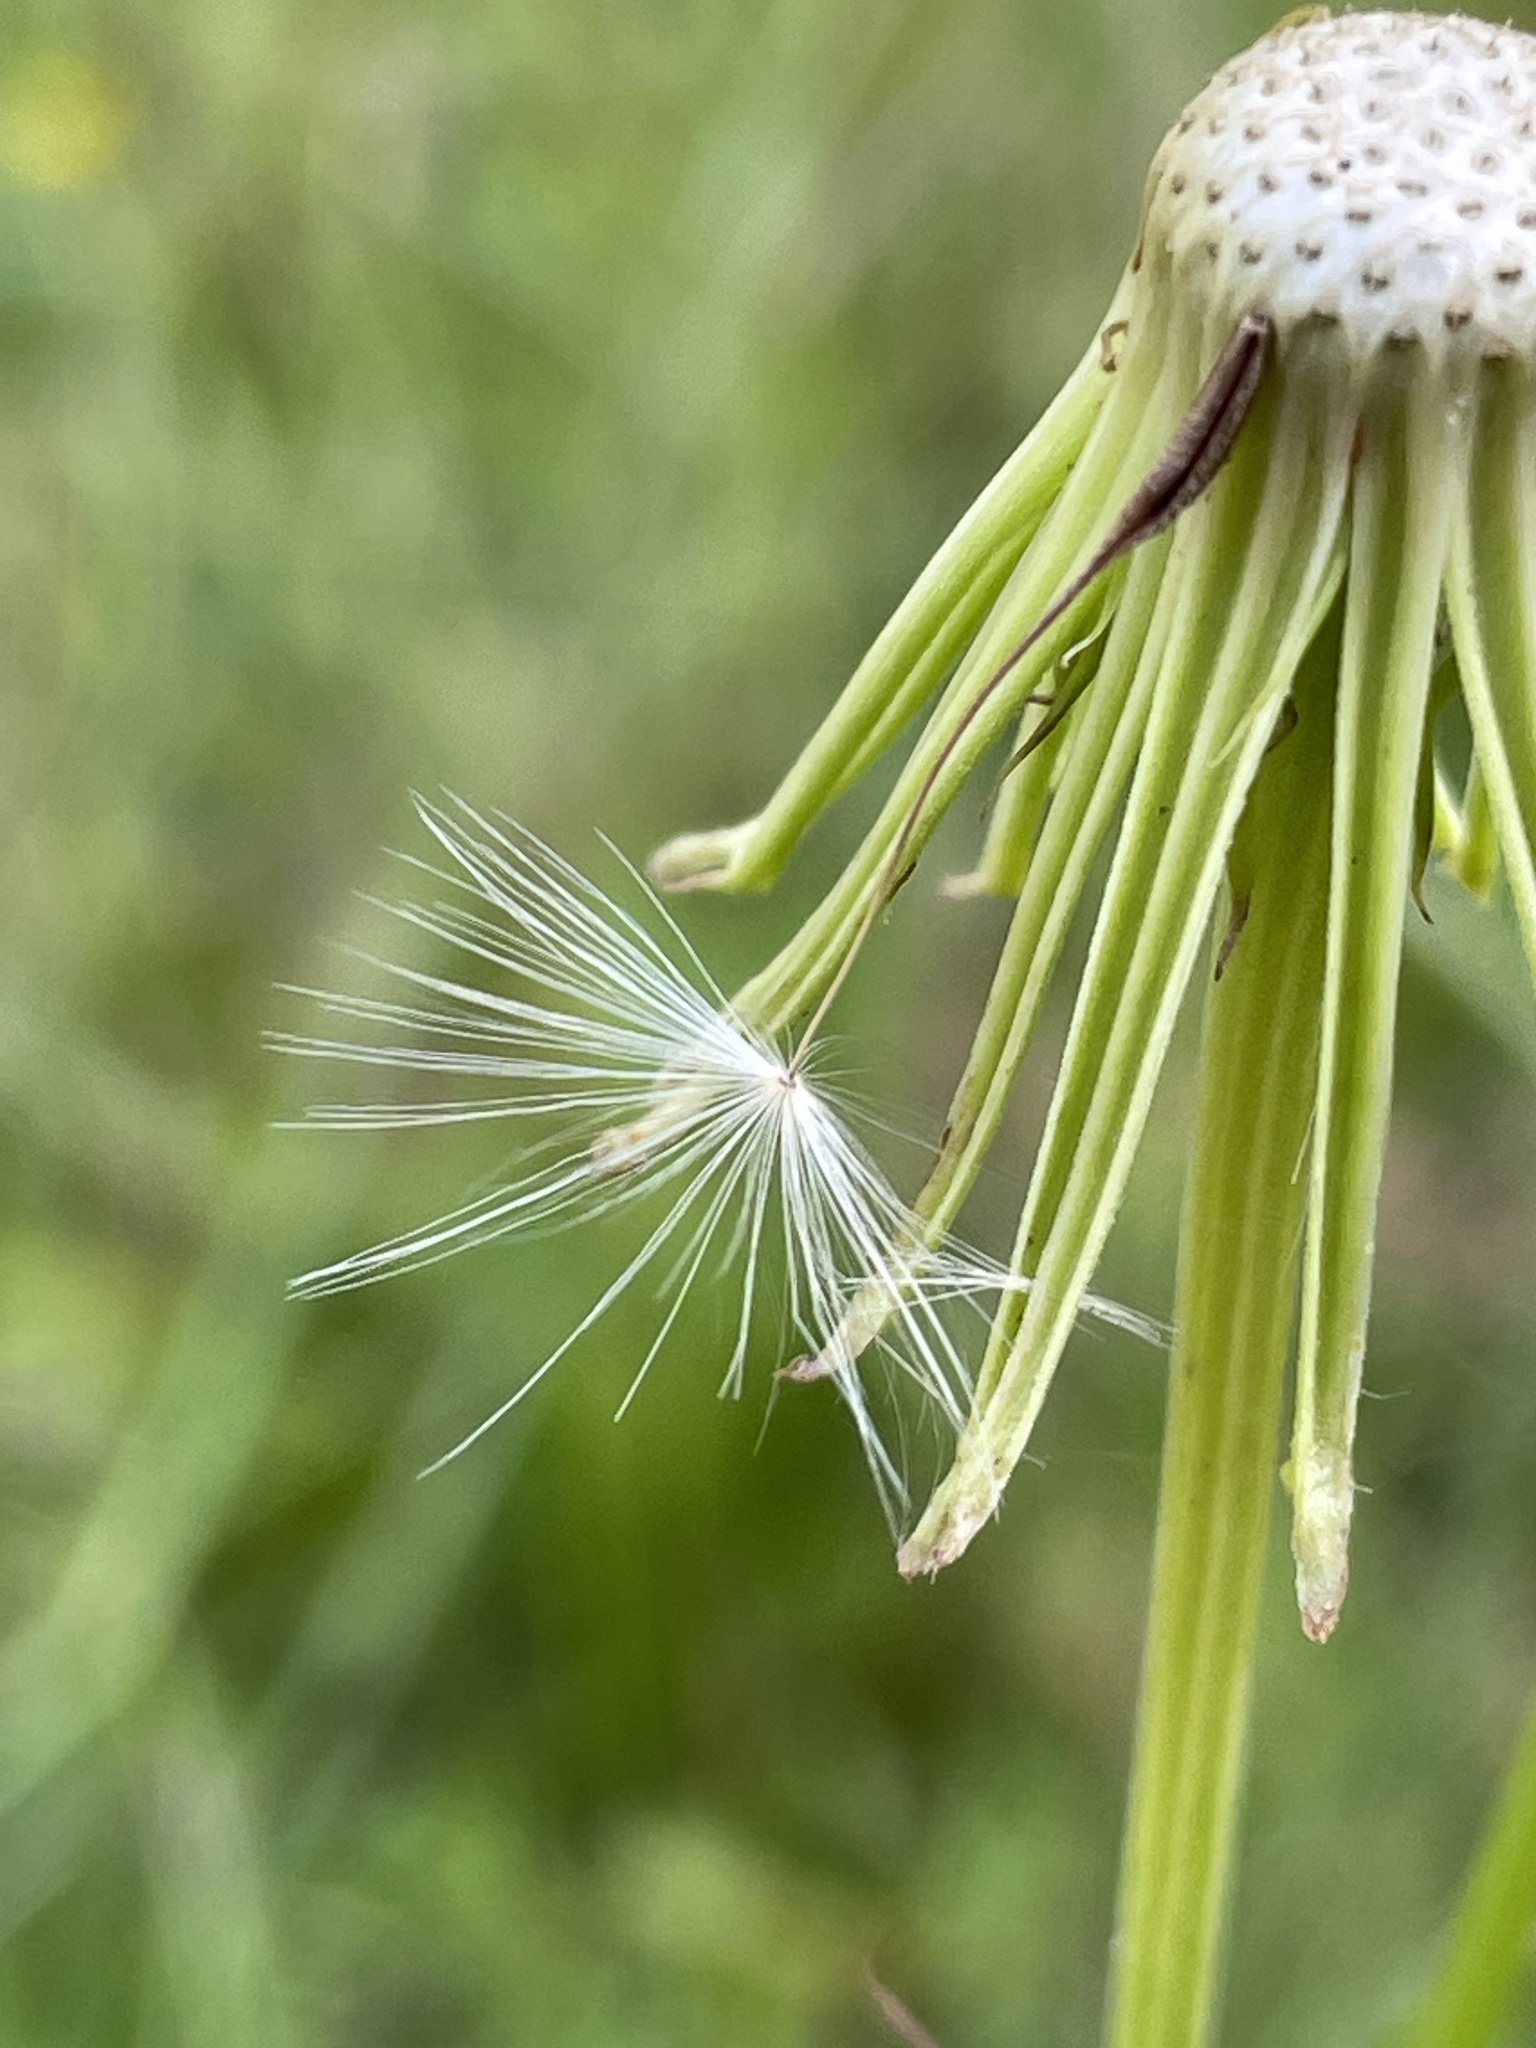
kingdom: Plantae
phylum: Tracheophyta
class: Magnoliopsida
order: Asterales
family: Asteraceae
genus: Pyrrhopappus
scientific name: Pyrrhopappus carolinianus
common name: Carolina desert-chicory
